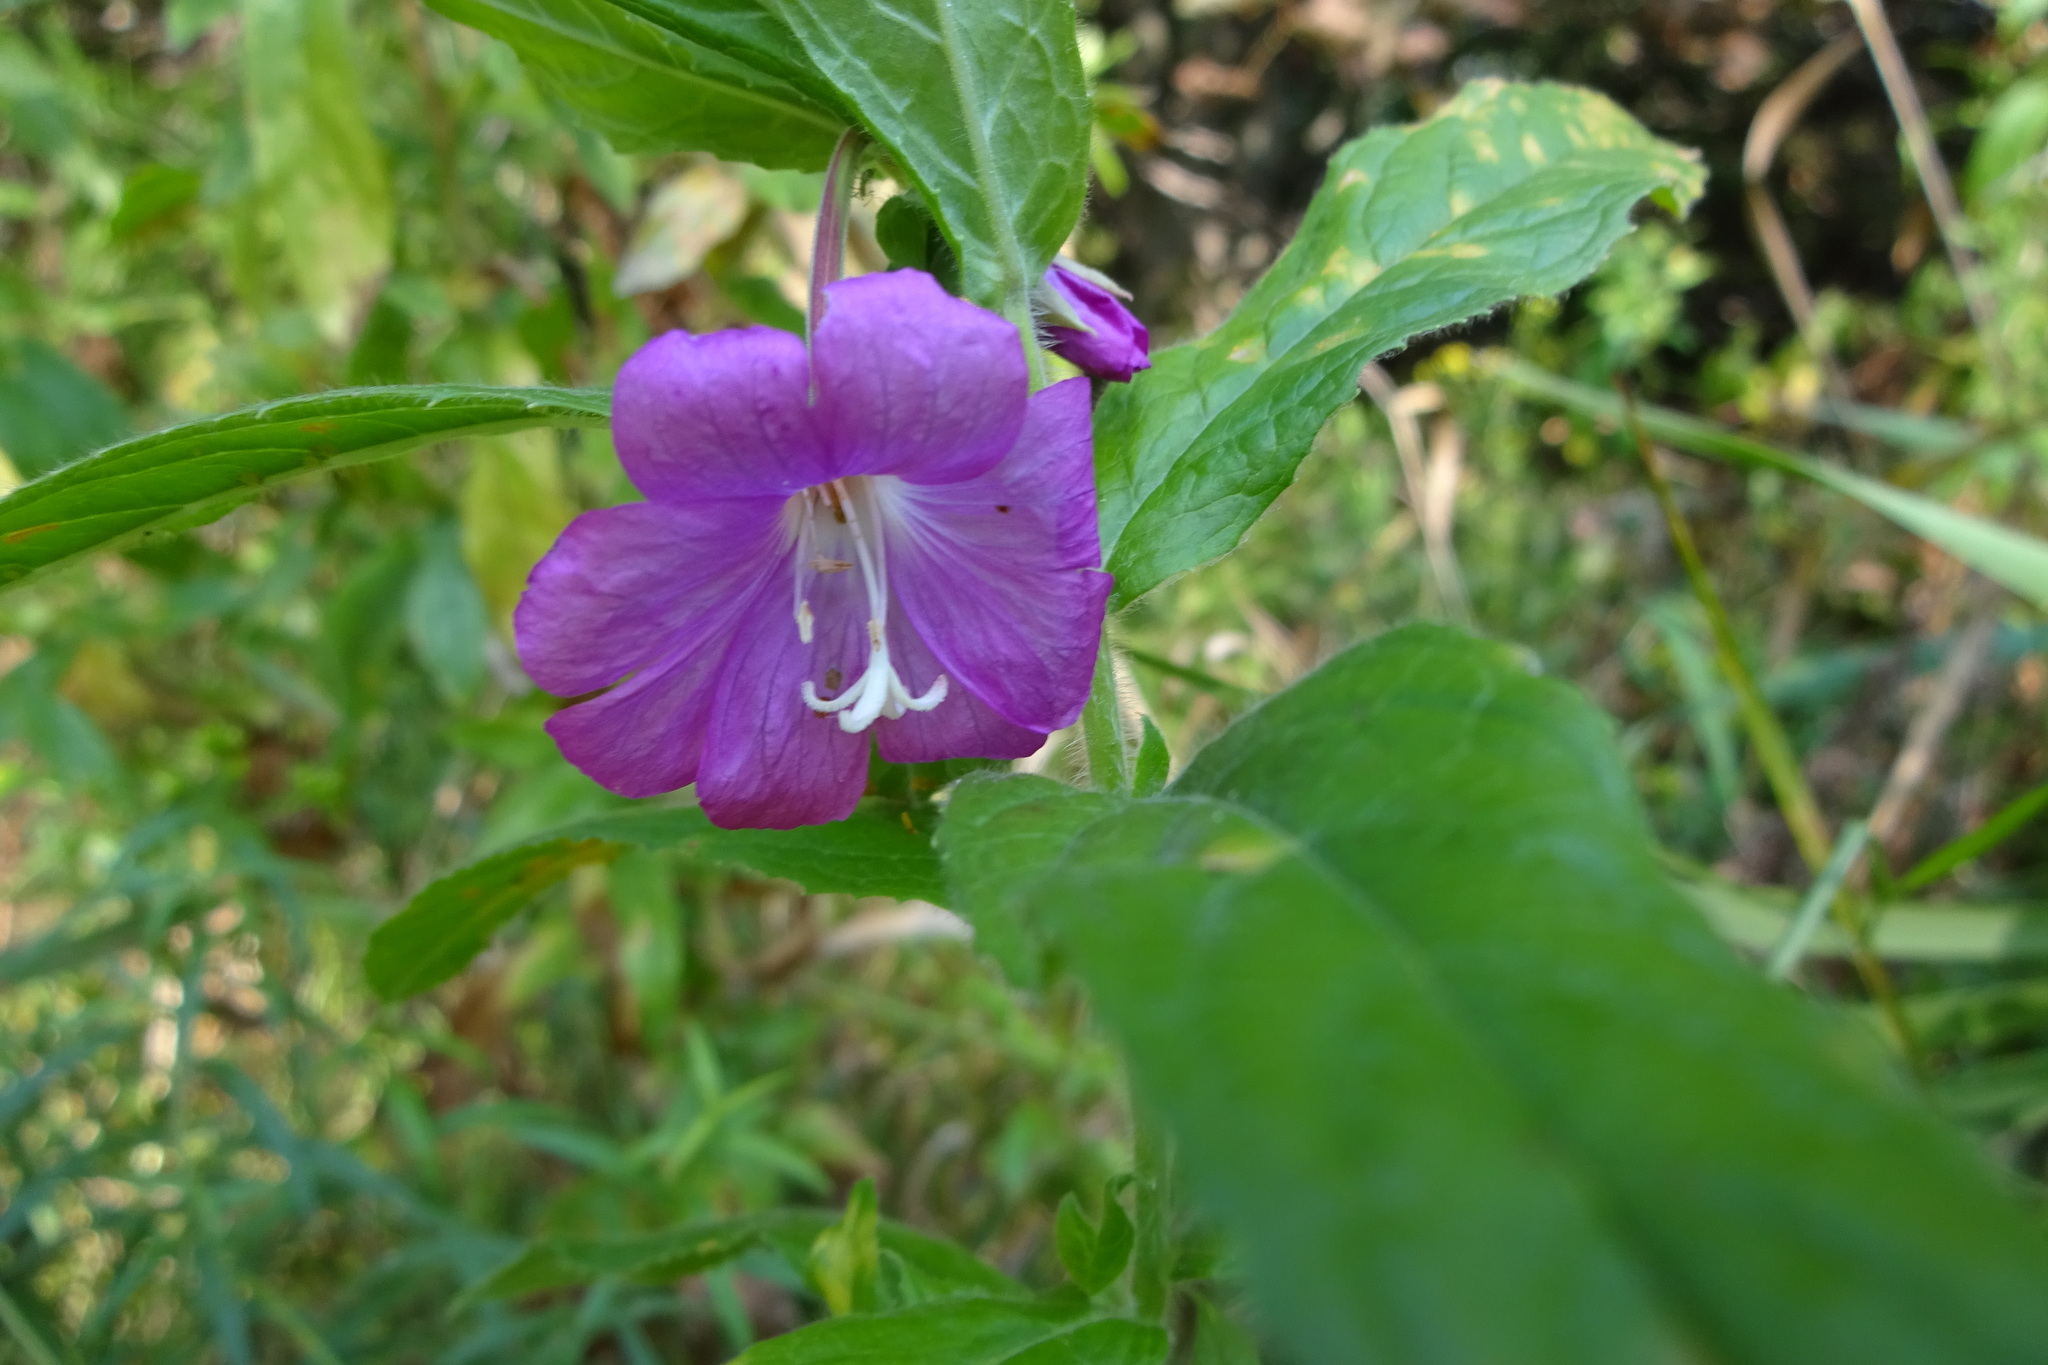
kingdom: Plantae
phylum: Tracheophyta
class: Magnoliopsida
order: Myrtales
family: Onagraceae
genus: Epilobium
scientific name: Epilobium hirsutum
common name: Great willowherb
